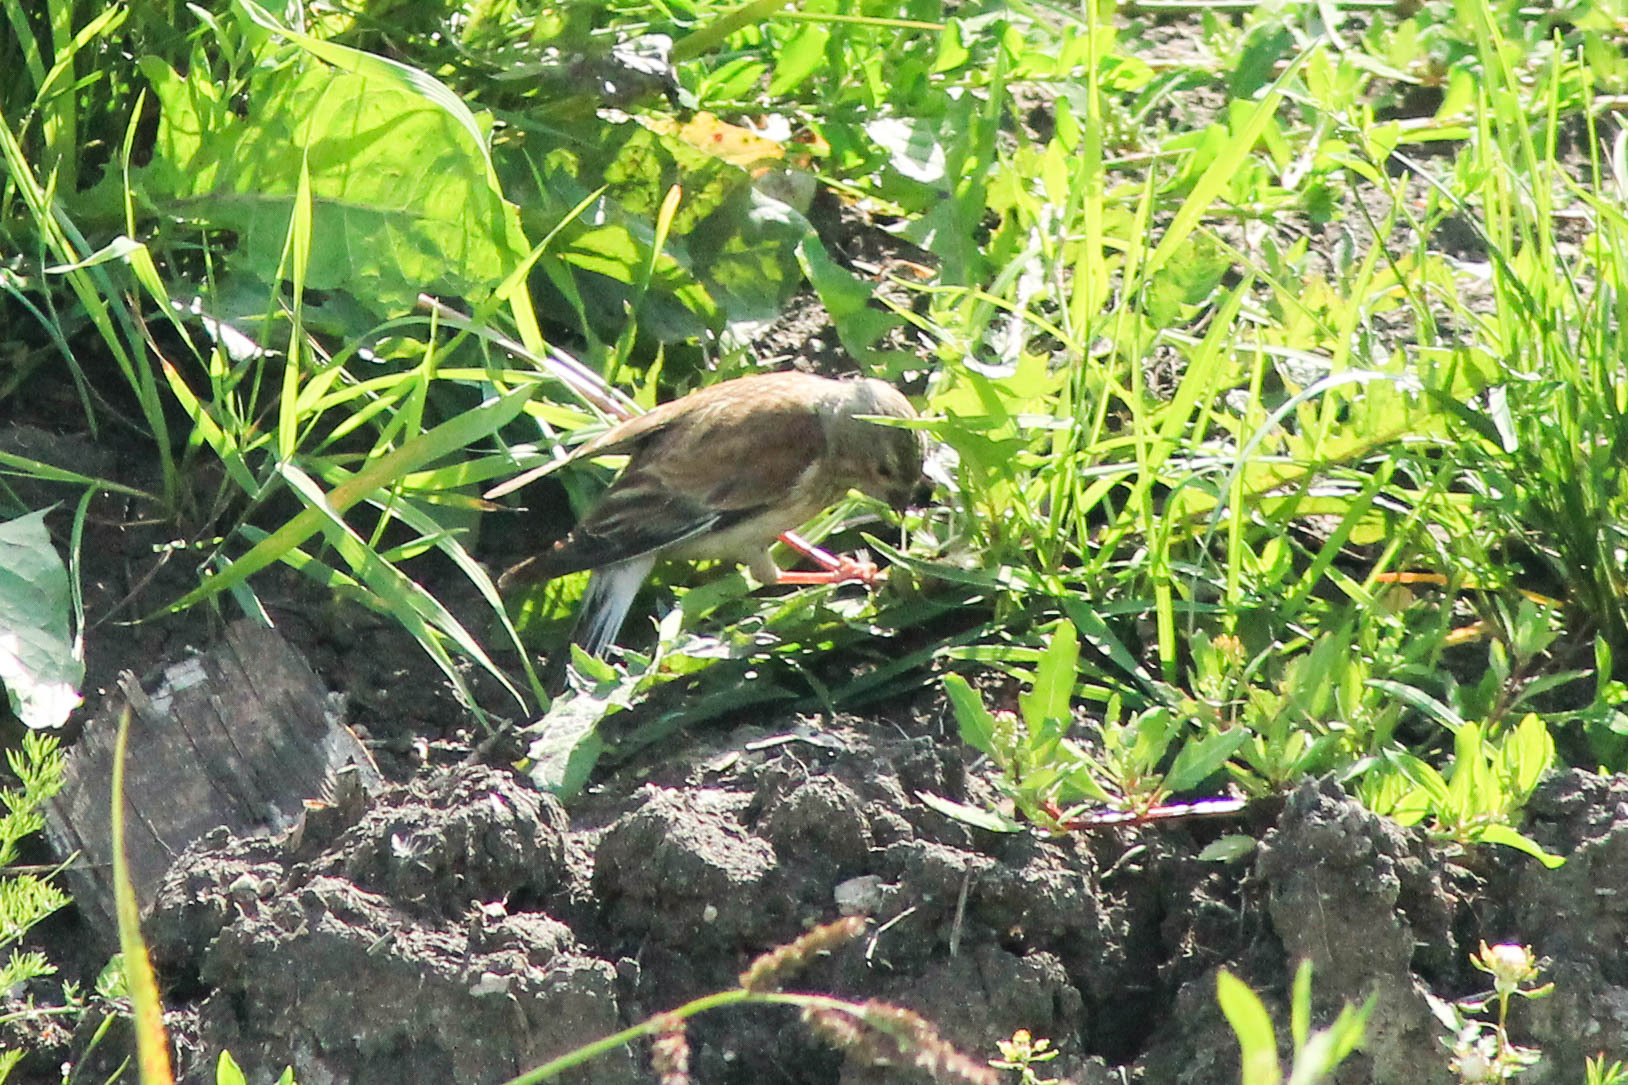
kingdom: Animalia
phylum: Chordata
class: Aves
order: Passeriformes
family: Fringillidae
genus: Linaria
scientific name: Linaria cannabina
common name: Common linnet
